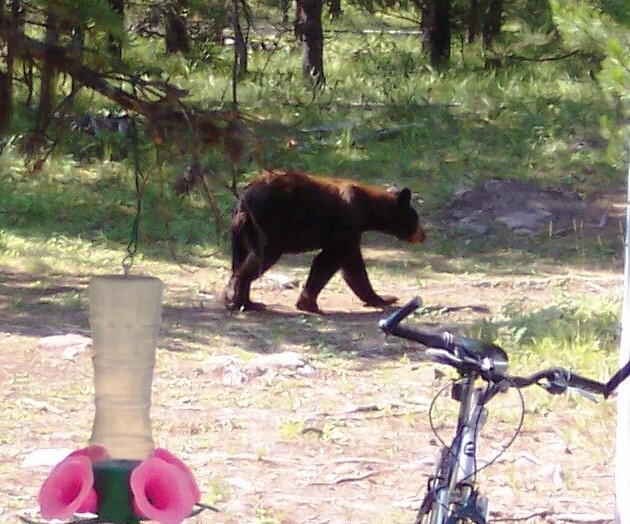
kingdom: Animalia
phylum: Chordata
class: Mammalia
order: Carnivora
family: Ursidae
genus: Ursus
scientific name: Ursus americanus
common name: American black bear
